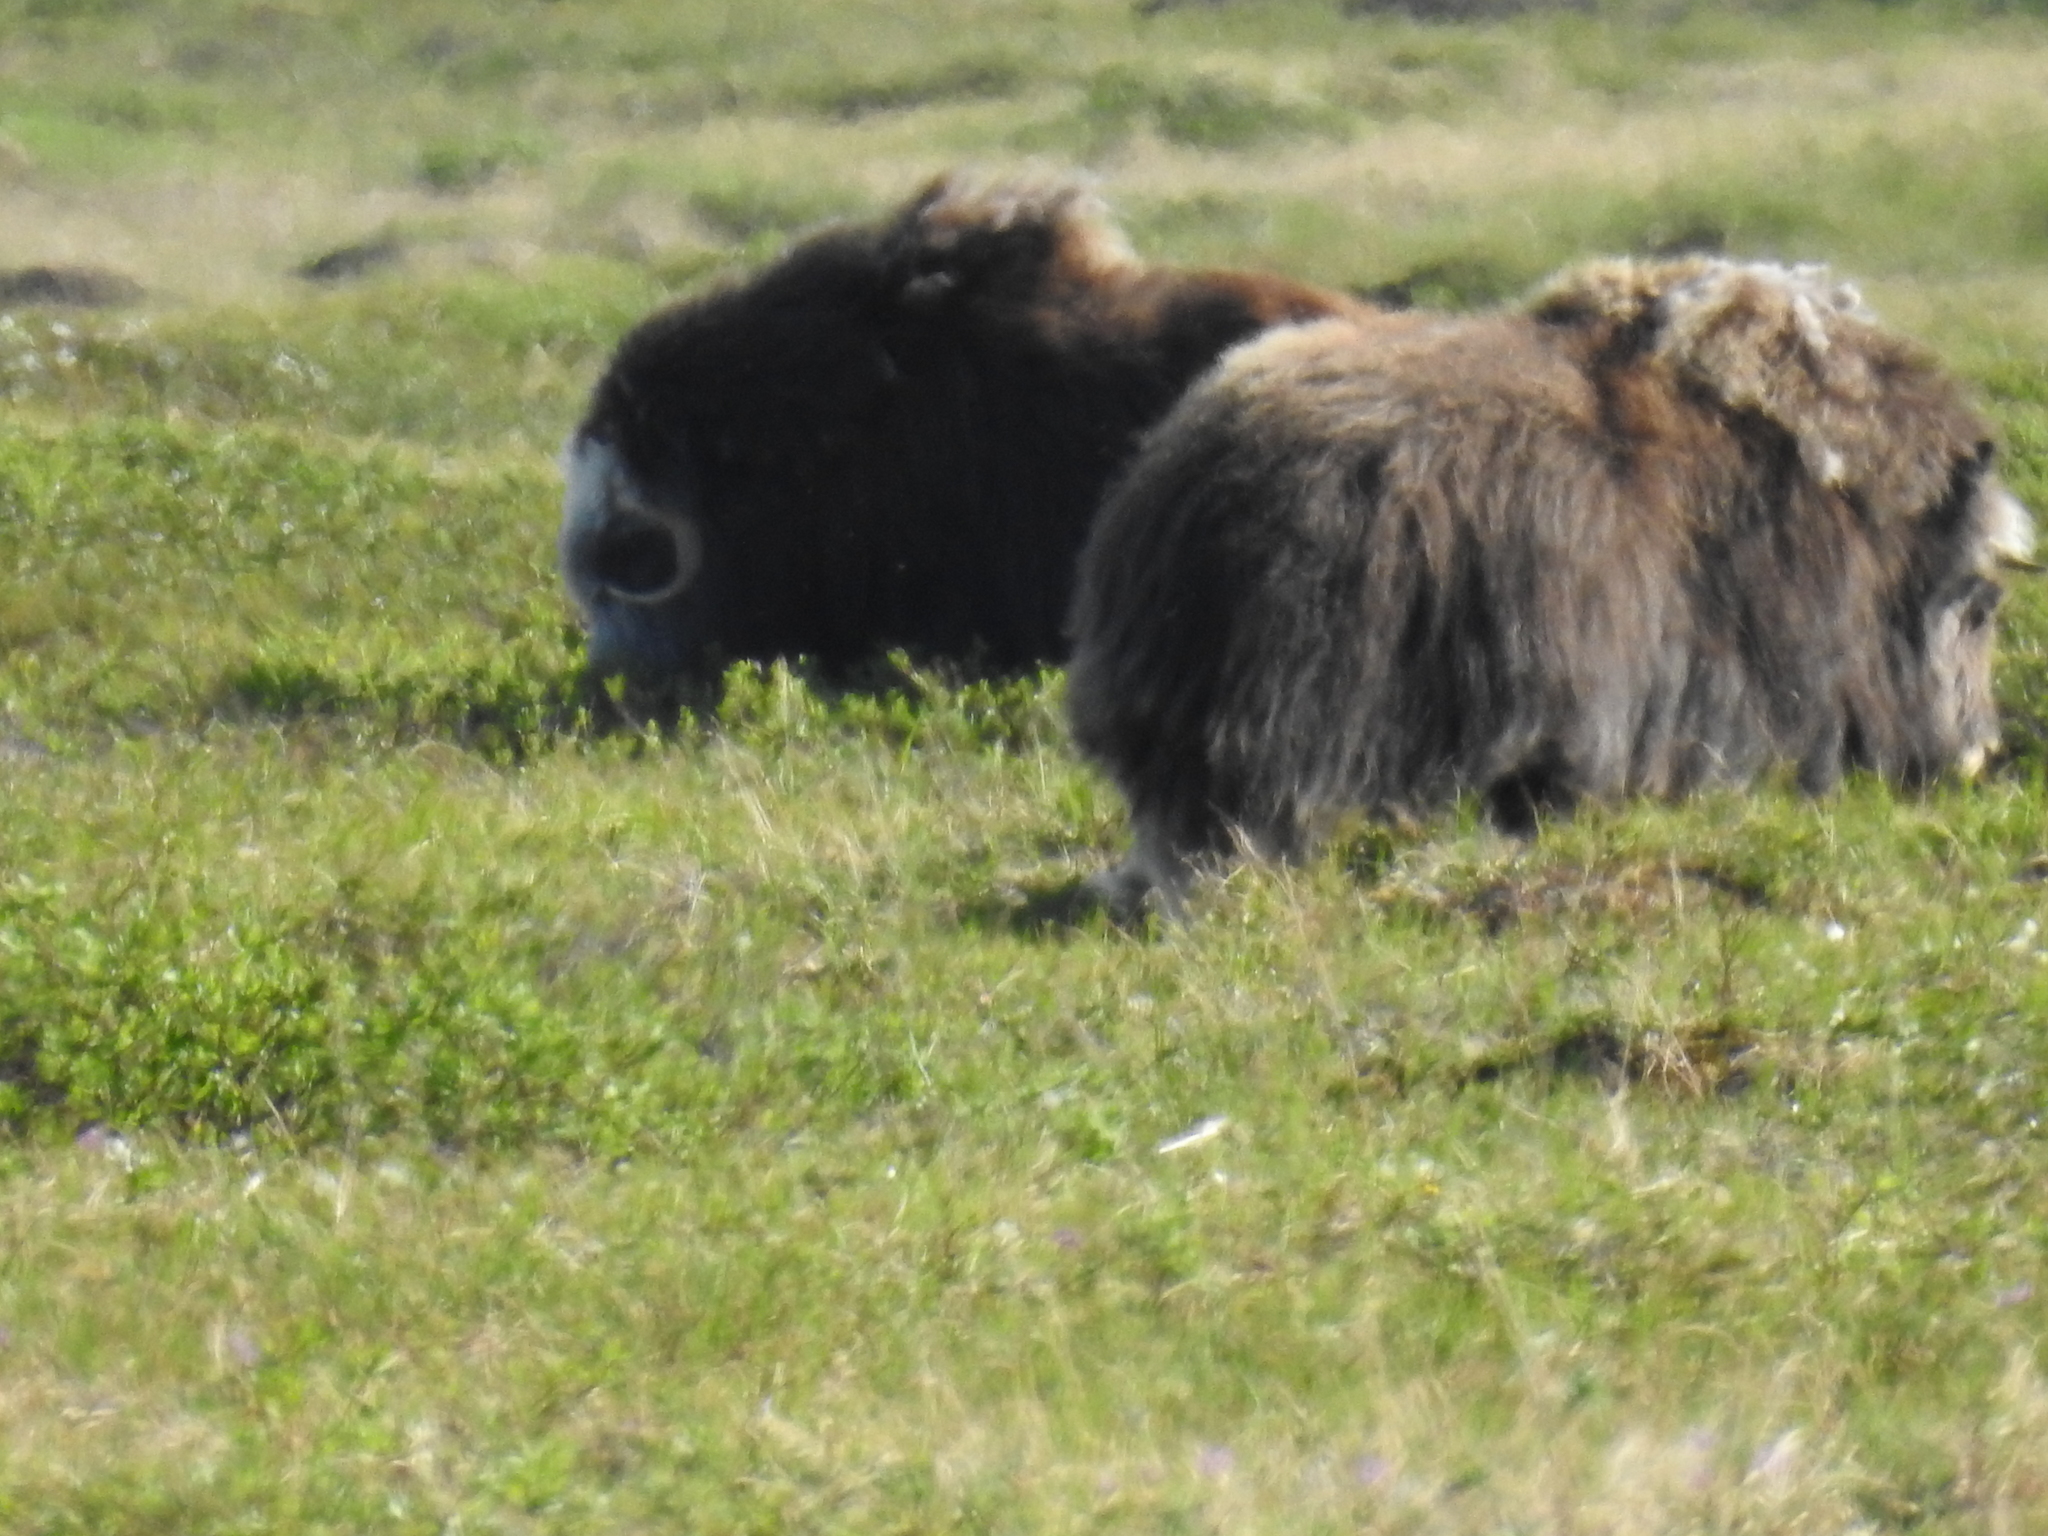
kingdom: Animalia
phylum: Chordata
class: Mammalia
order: Artiodactyla
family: Bovidae
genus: Ovibos
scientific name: Ovibos moschatus
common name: Muskox
